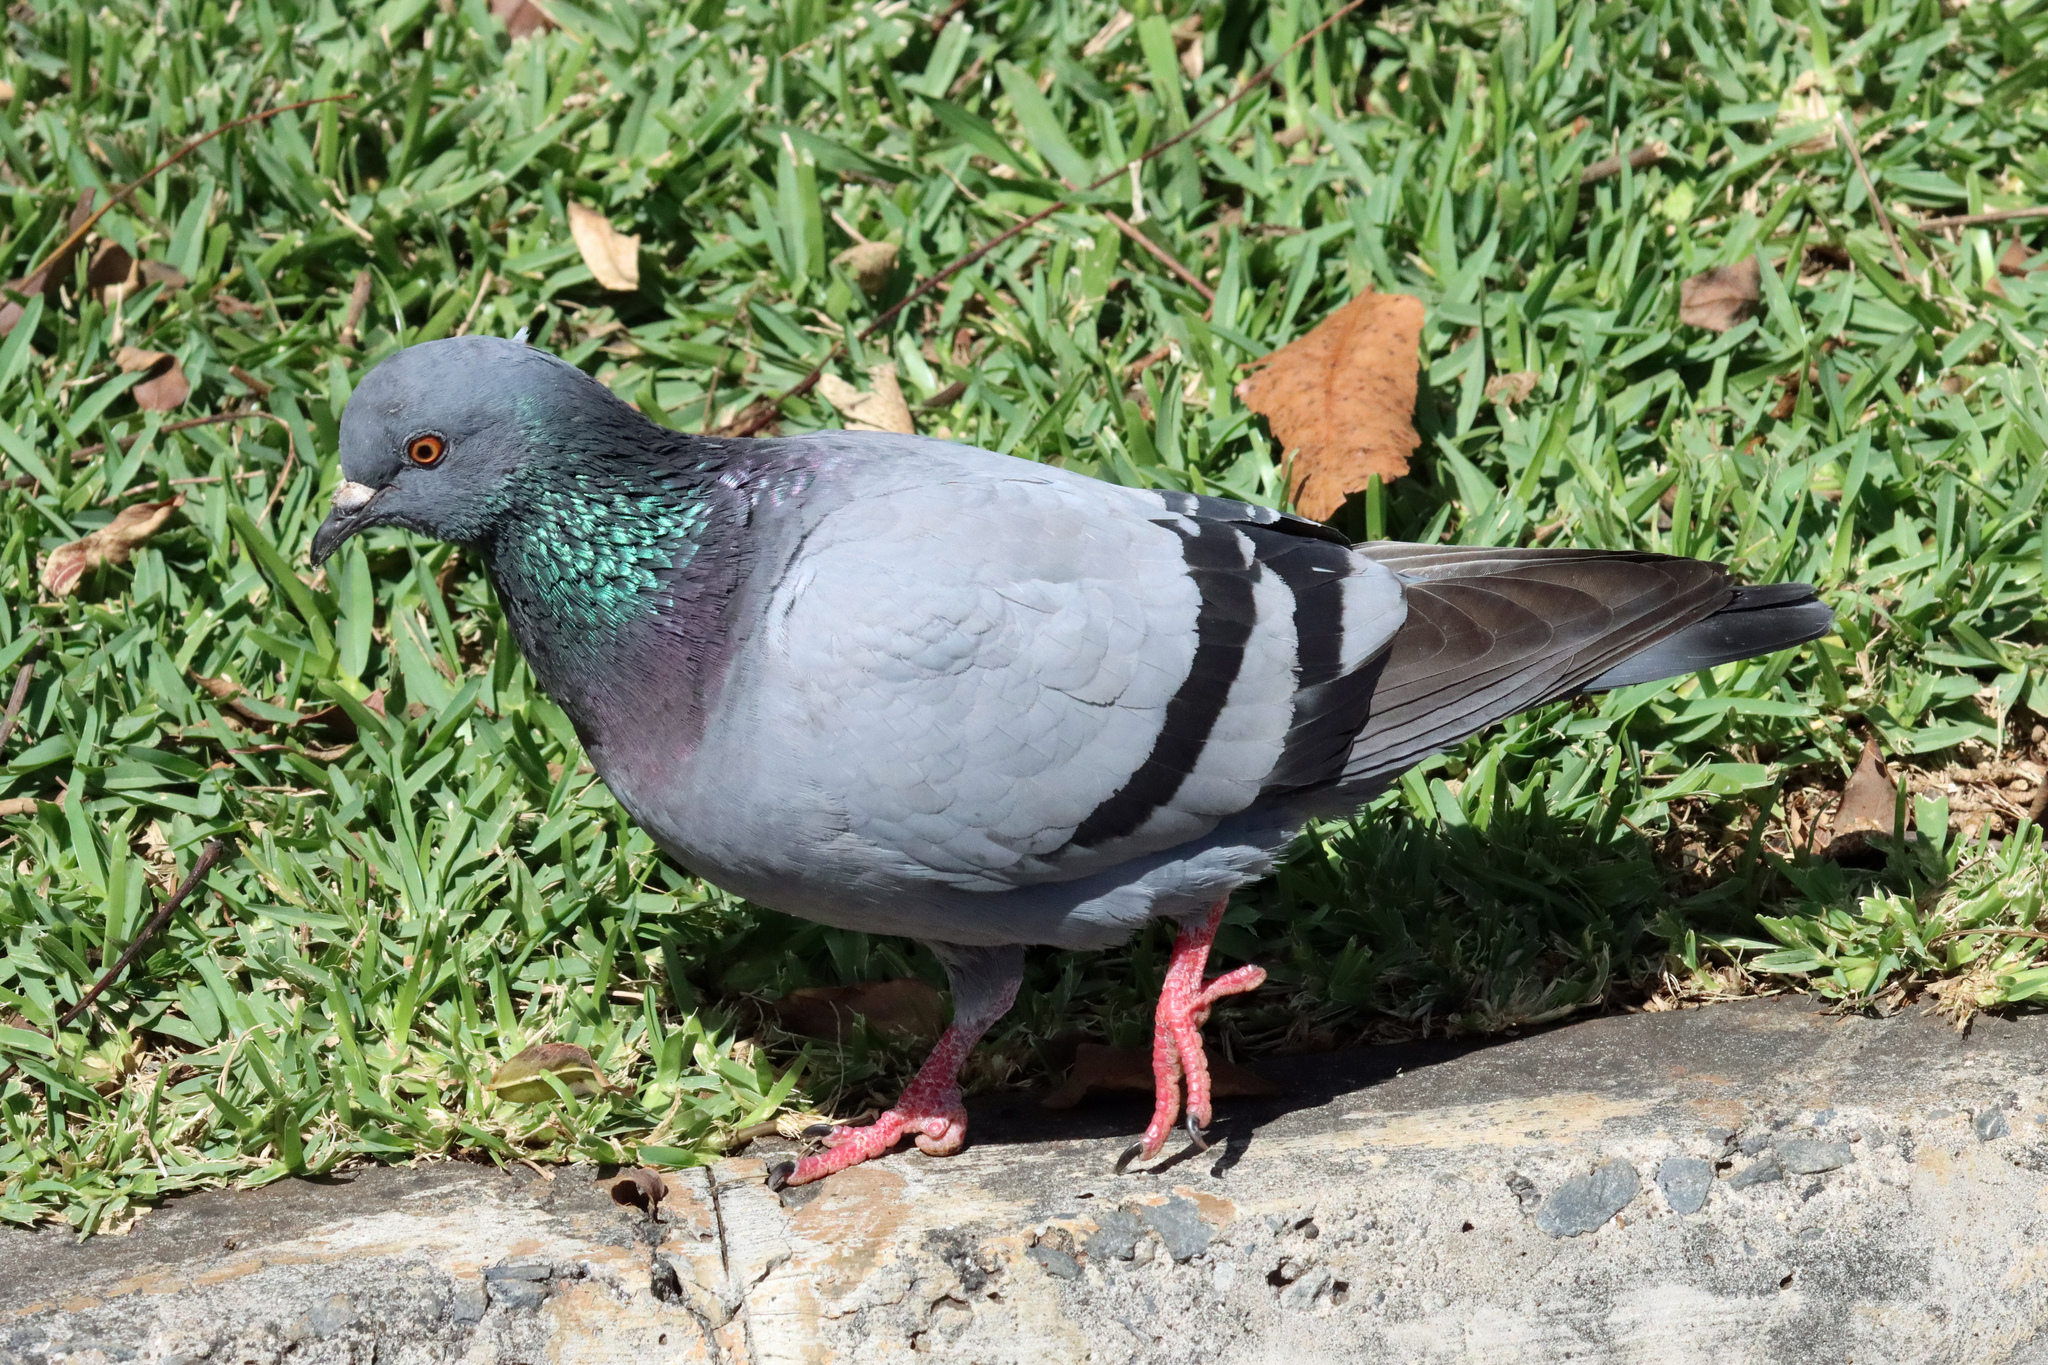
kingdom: Animalia
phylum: Chordata
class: Aves
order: Columbiformes
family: Columbidae
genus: Columba
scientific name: Columba livia
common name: Rock pigeon
